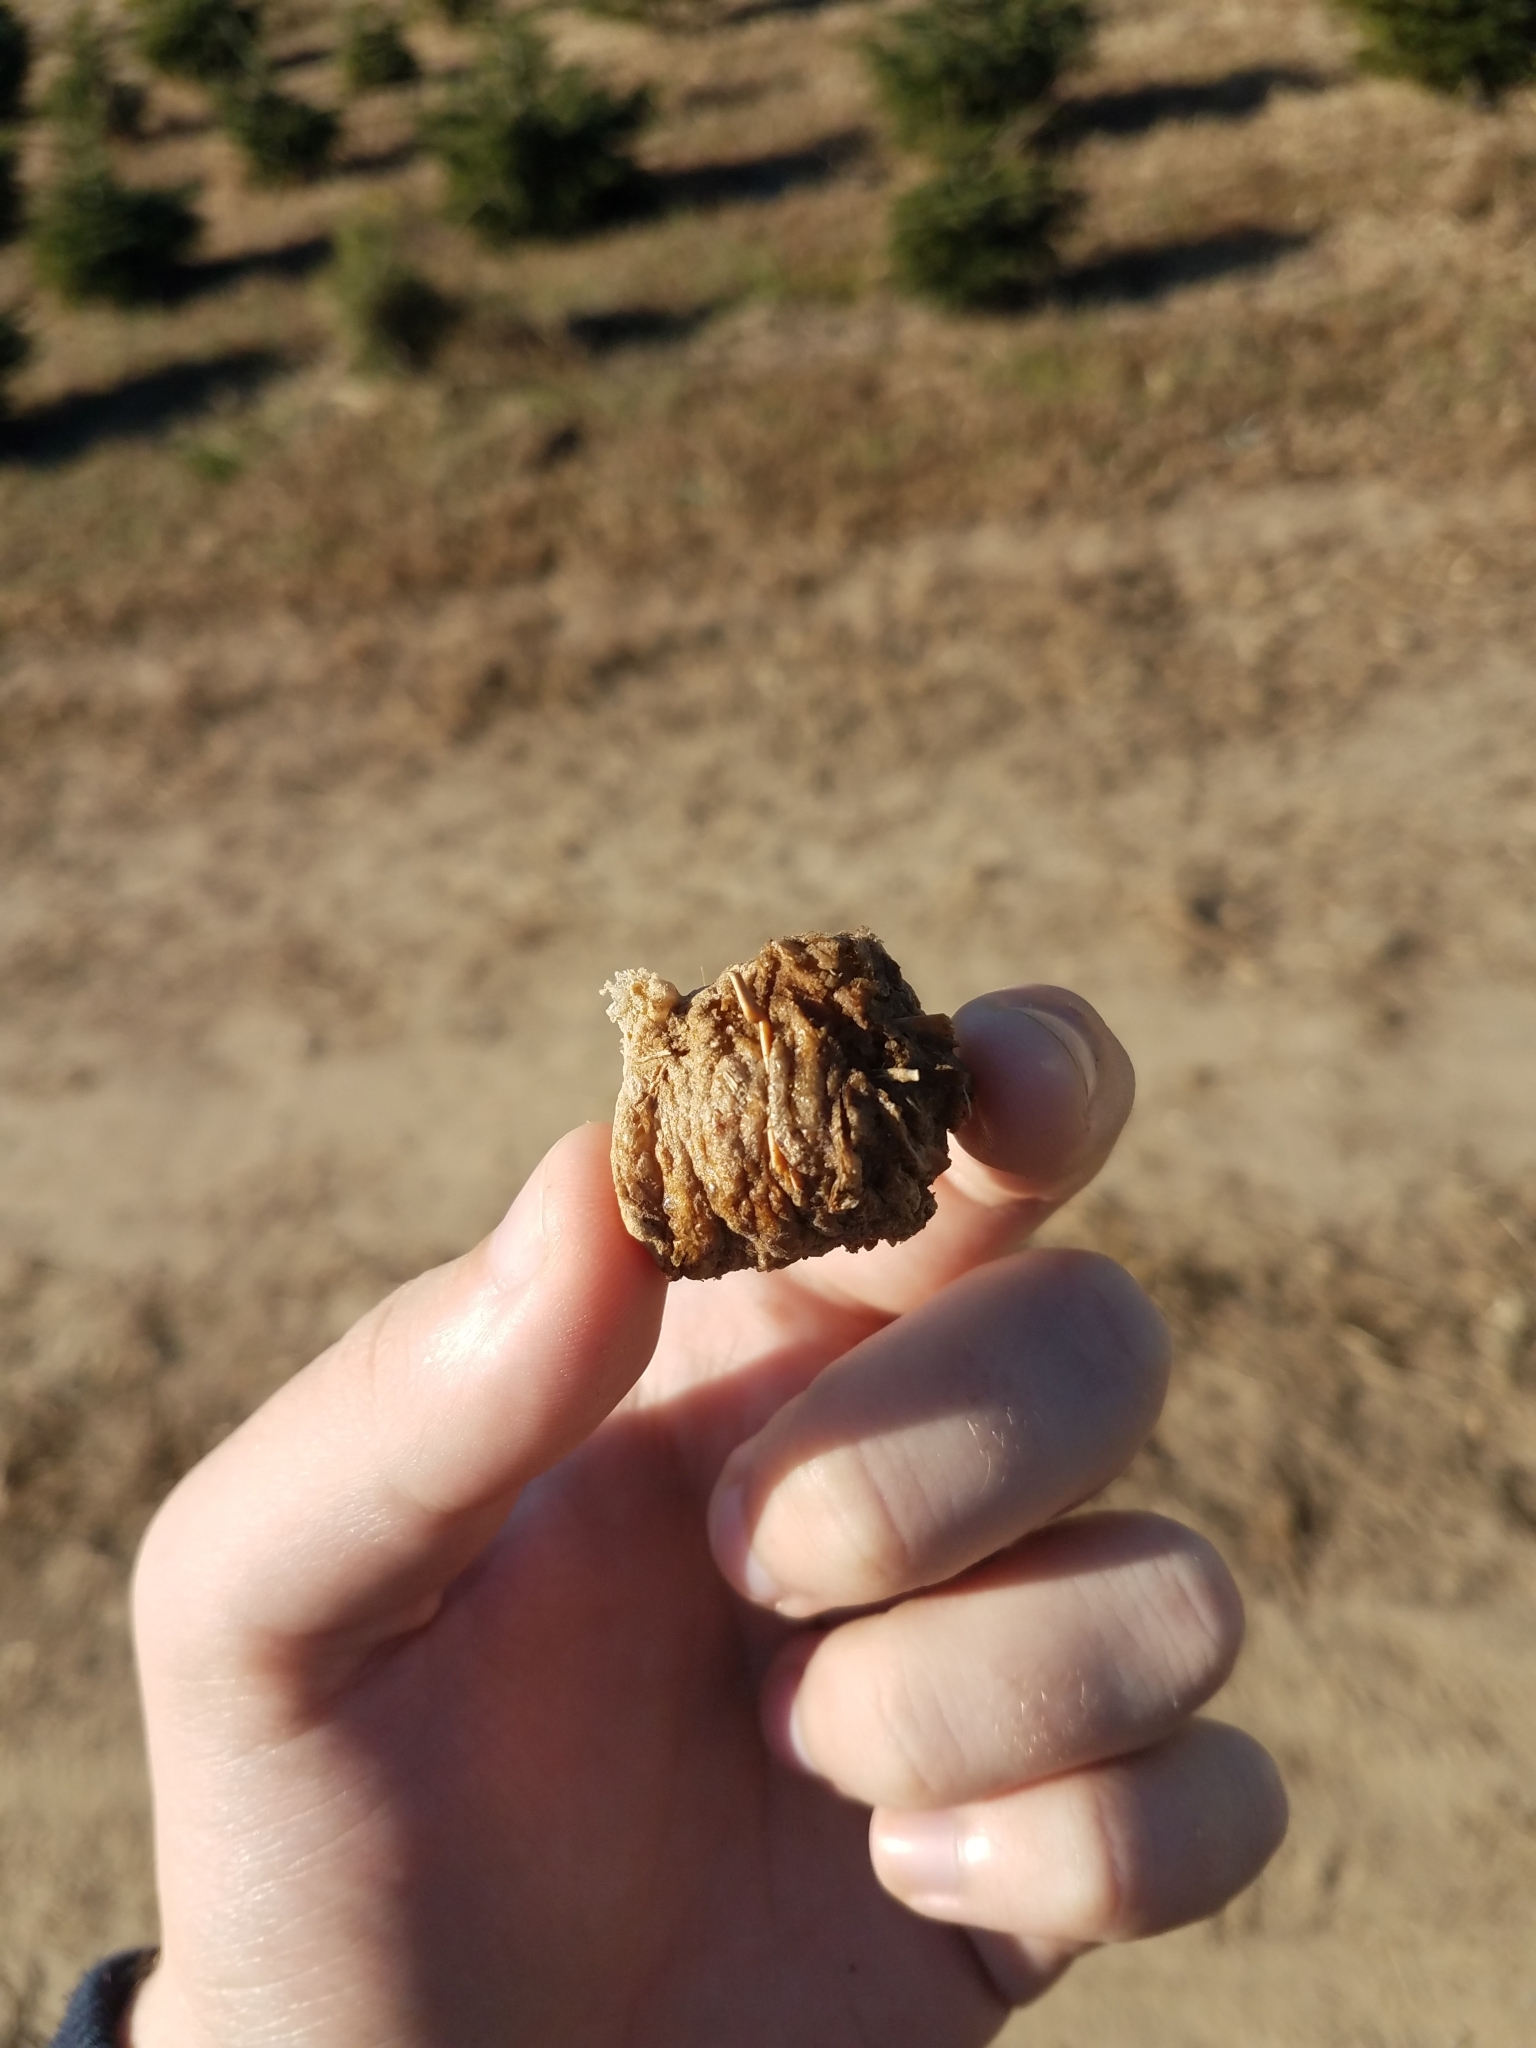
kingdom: Animalia
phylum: Arthropoda
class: Insecta
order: Mantodea
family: Mantidae
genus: Tenodera
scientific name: Tenodera sinensis
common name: Chinese mantis
